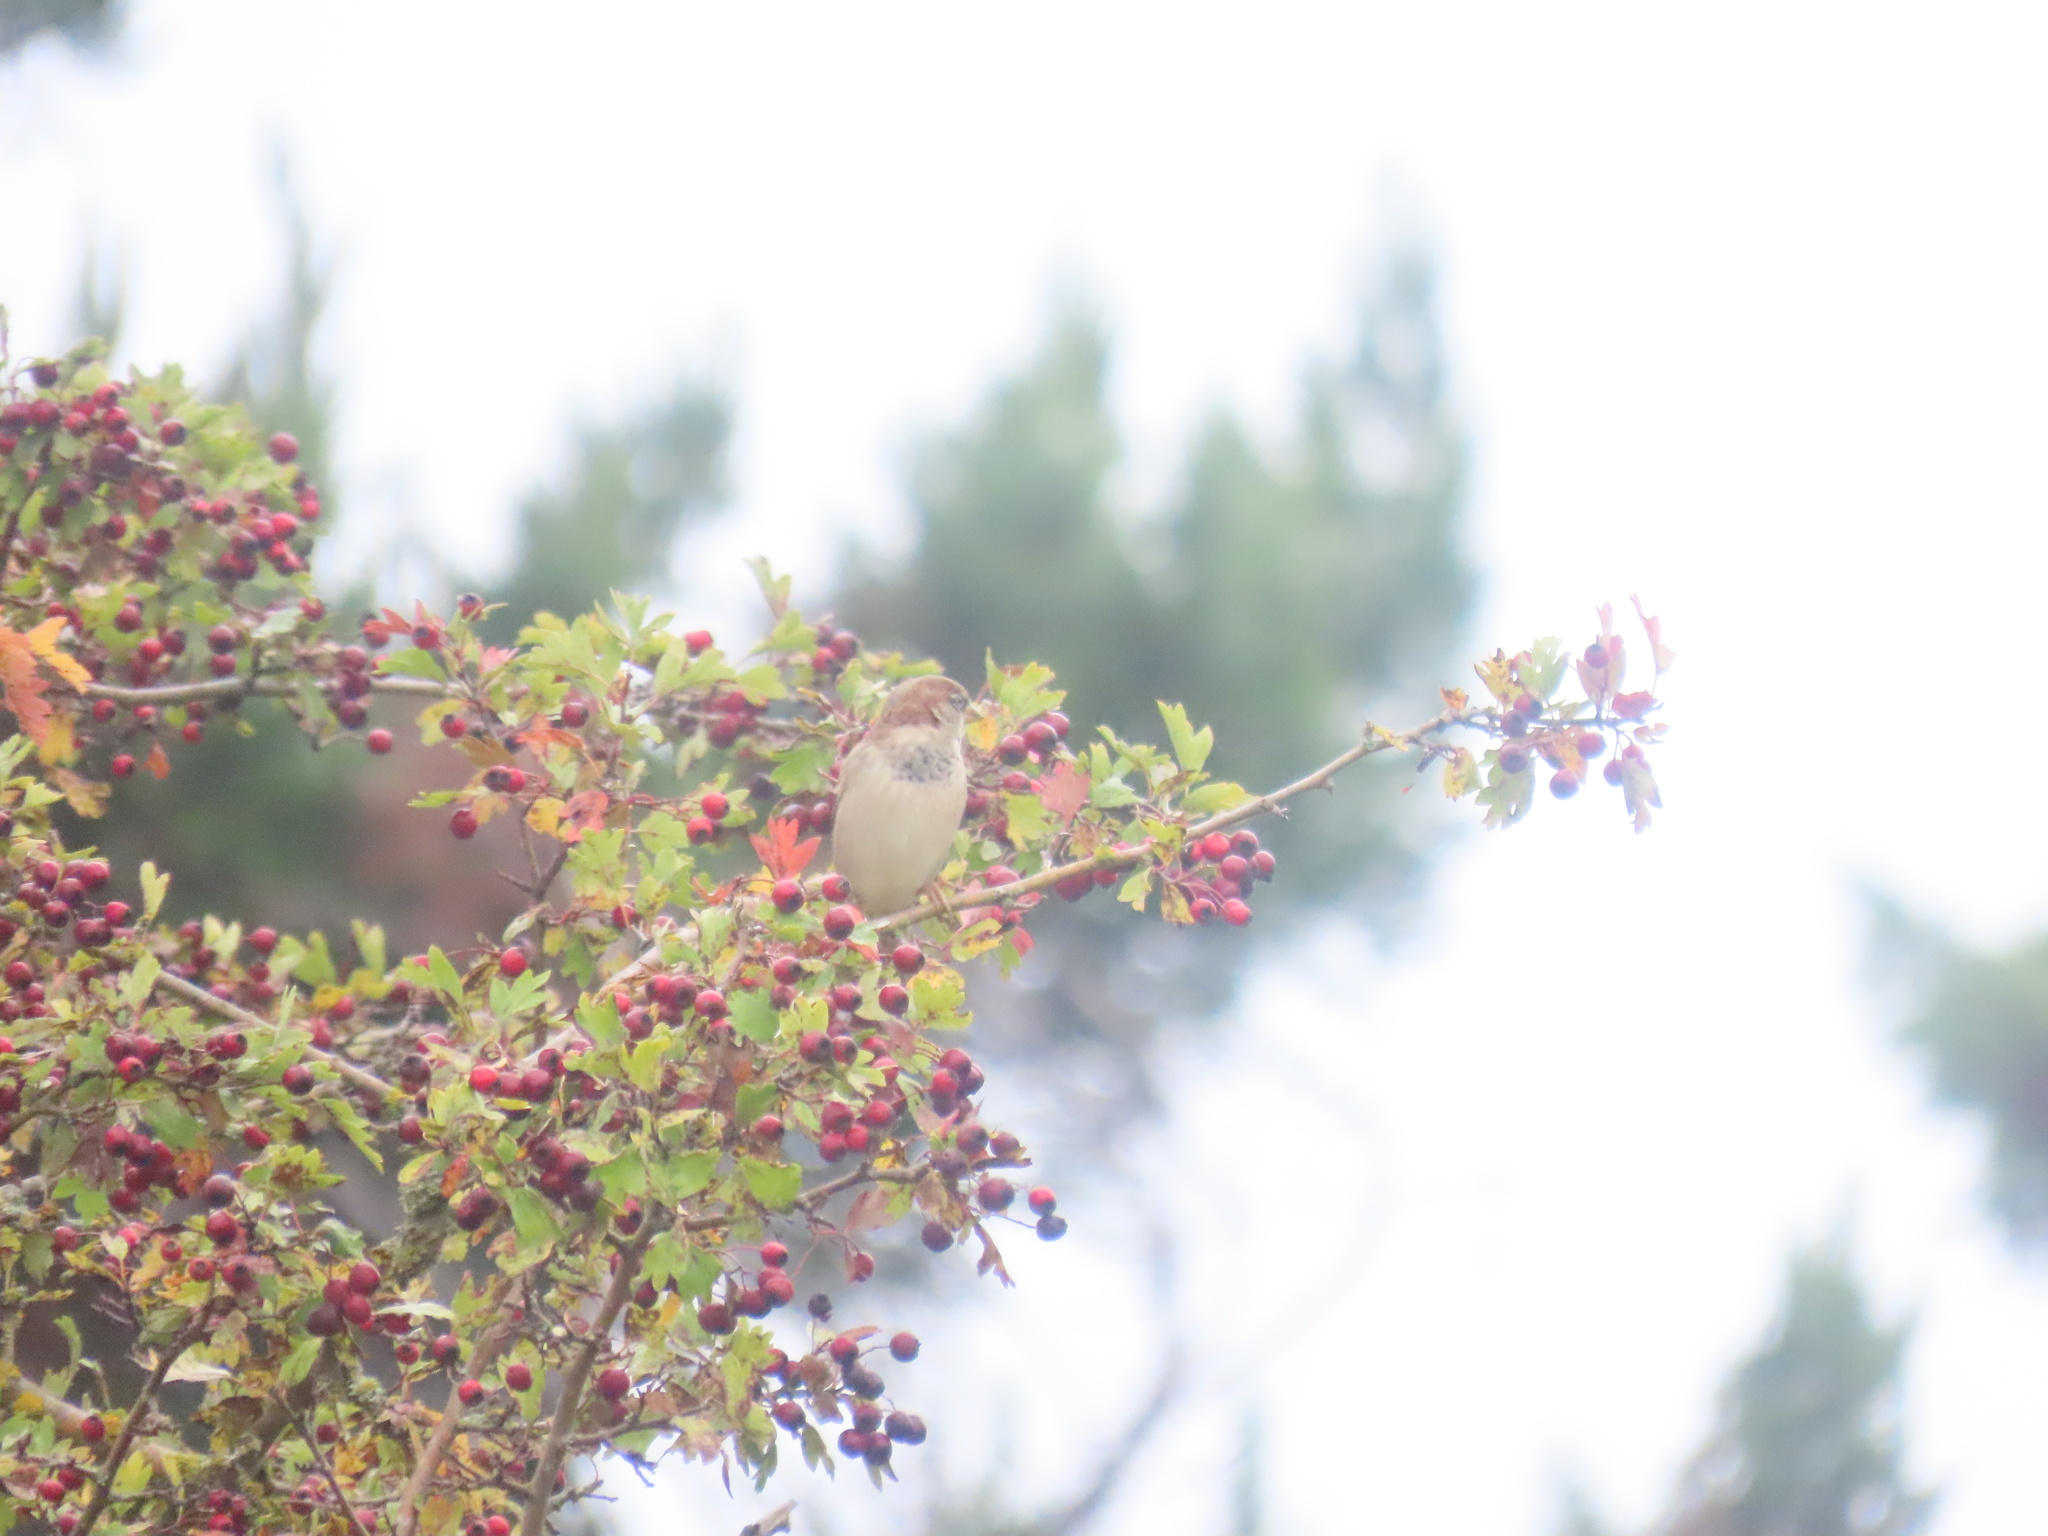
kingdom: Animalia
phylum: Chordata
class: Aves
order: Passeriformes
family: Passeridae
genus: Passer
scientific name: Passer domesticus
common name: House sparrow
